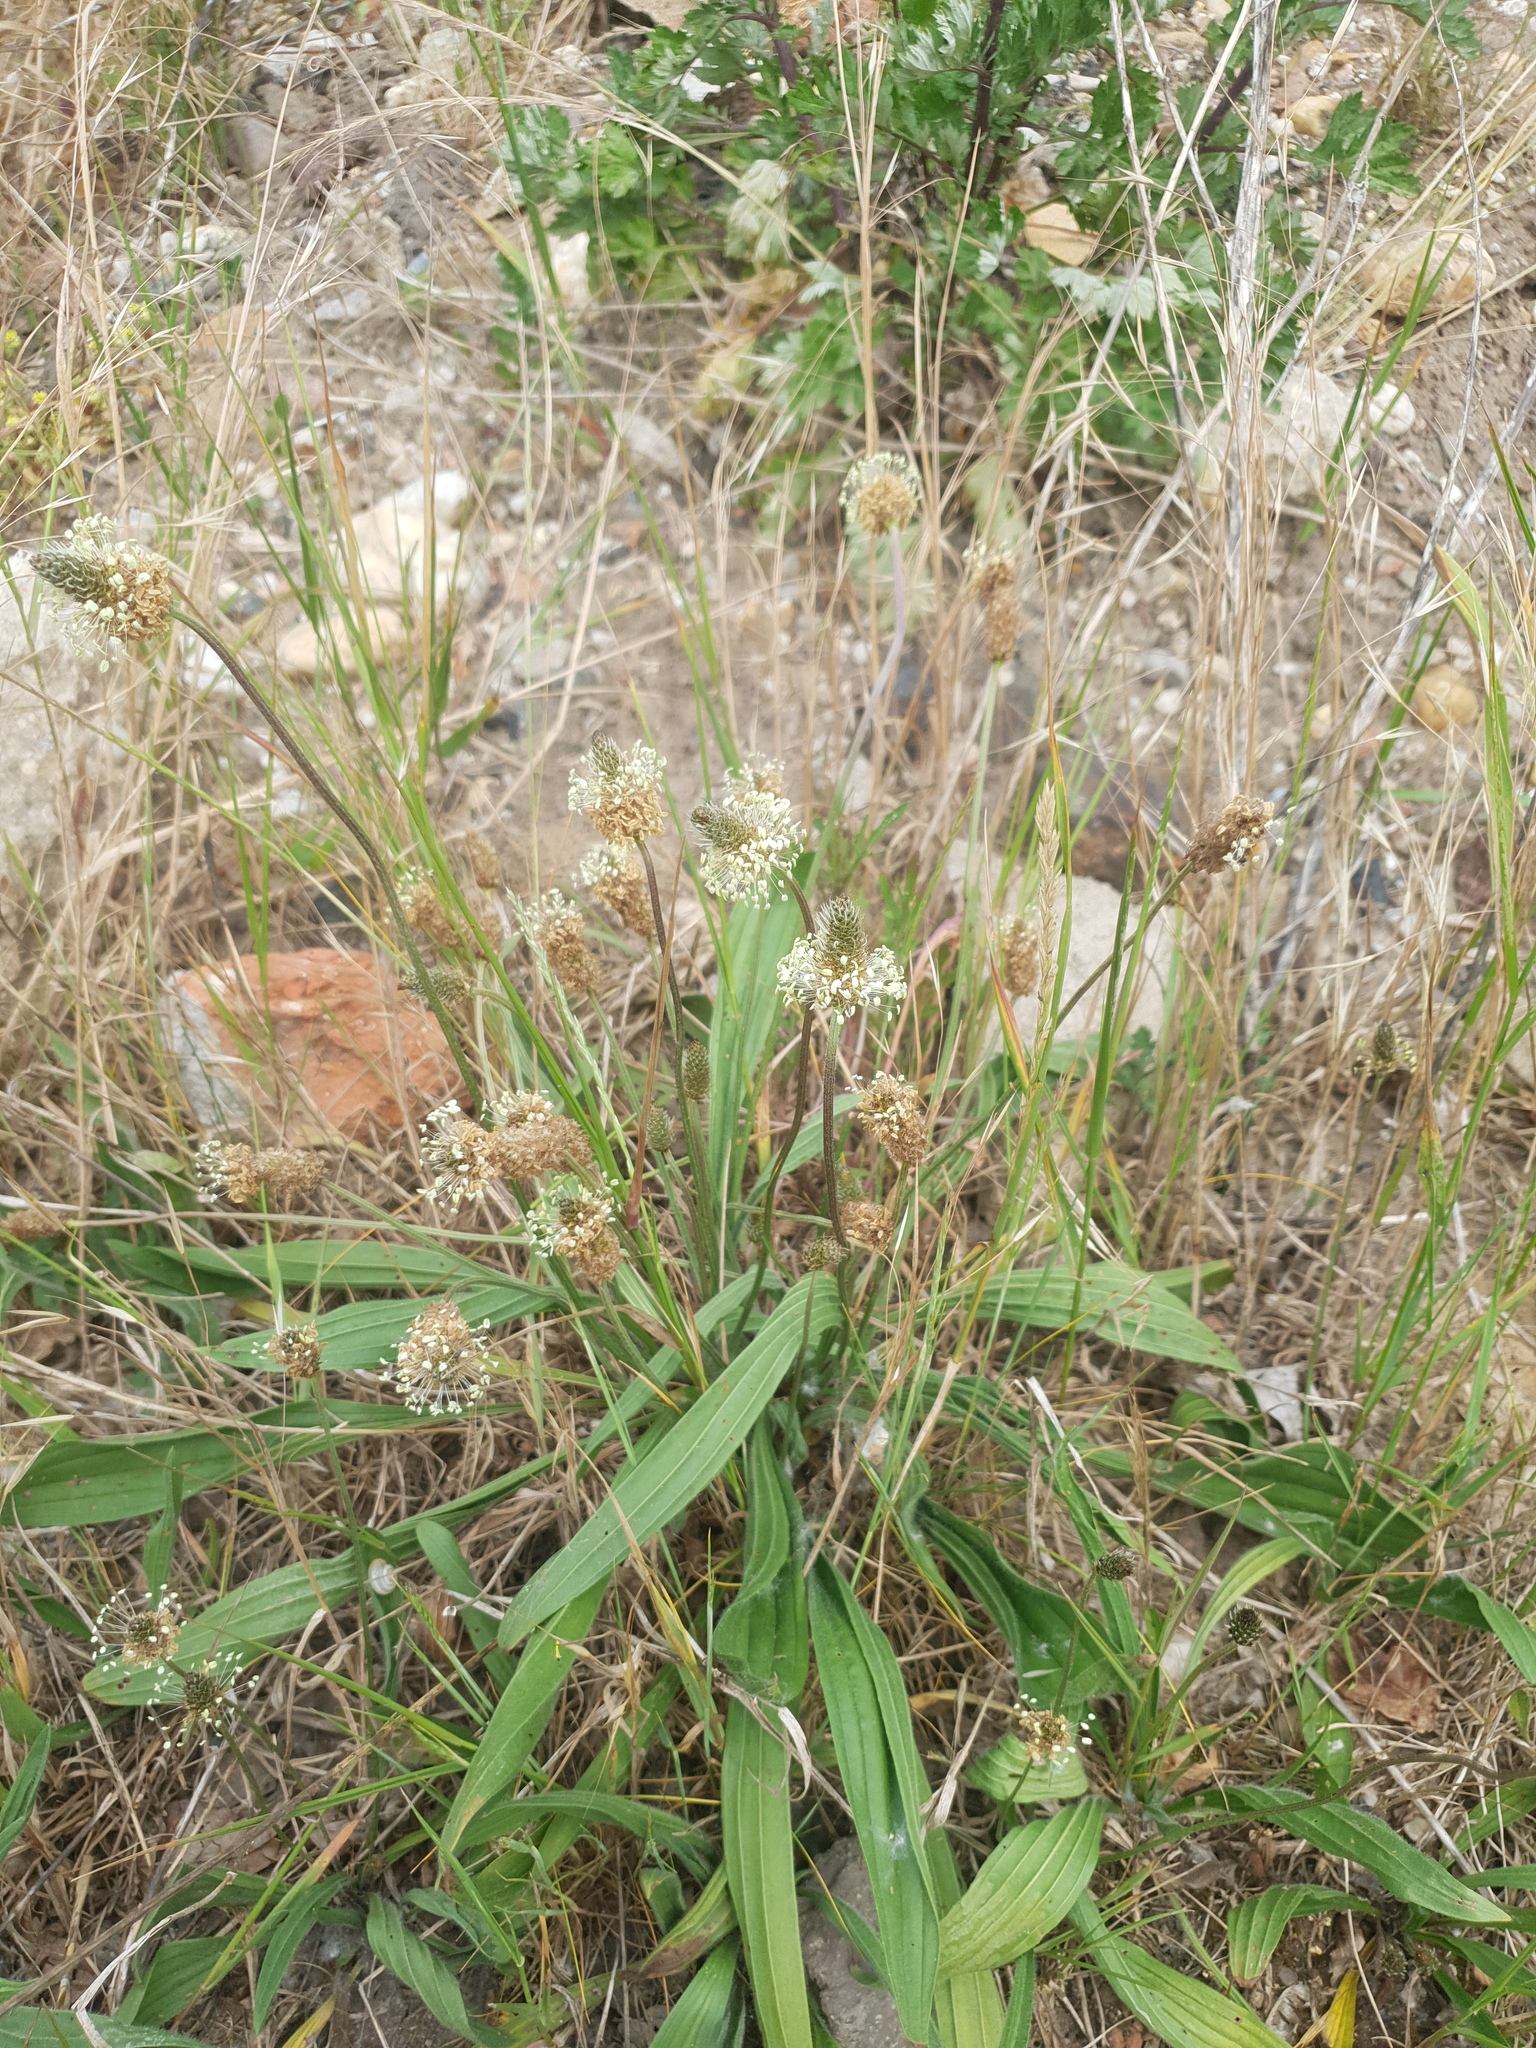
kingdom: Plantae
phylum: Tracheophyta
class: Magnoliopsida
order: Lamiales
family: Plantaginaceae
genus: Plantago
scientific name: Plantago lanceolata
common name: Ribwort plantain
